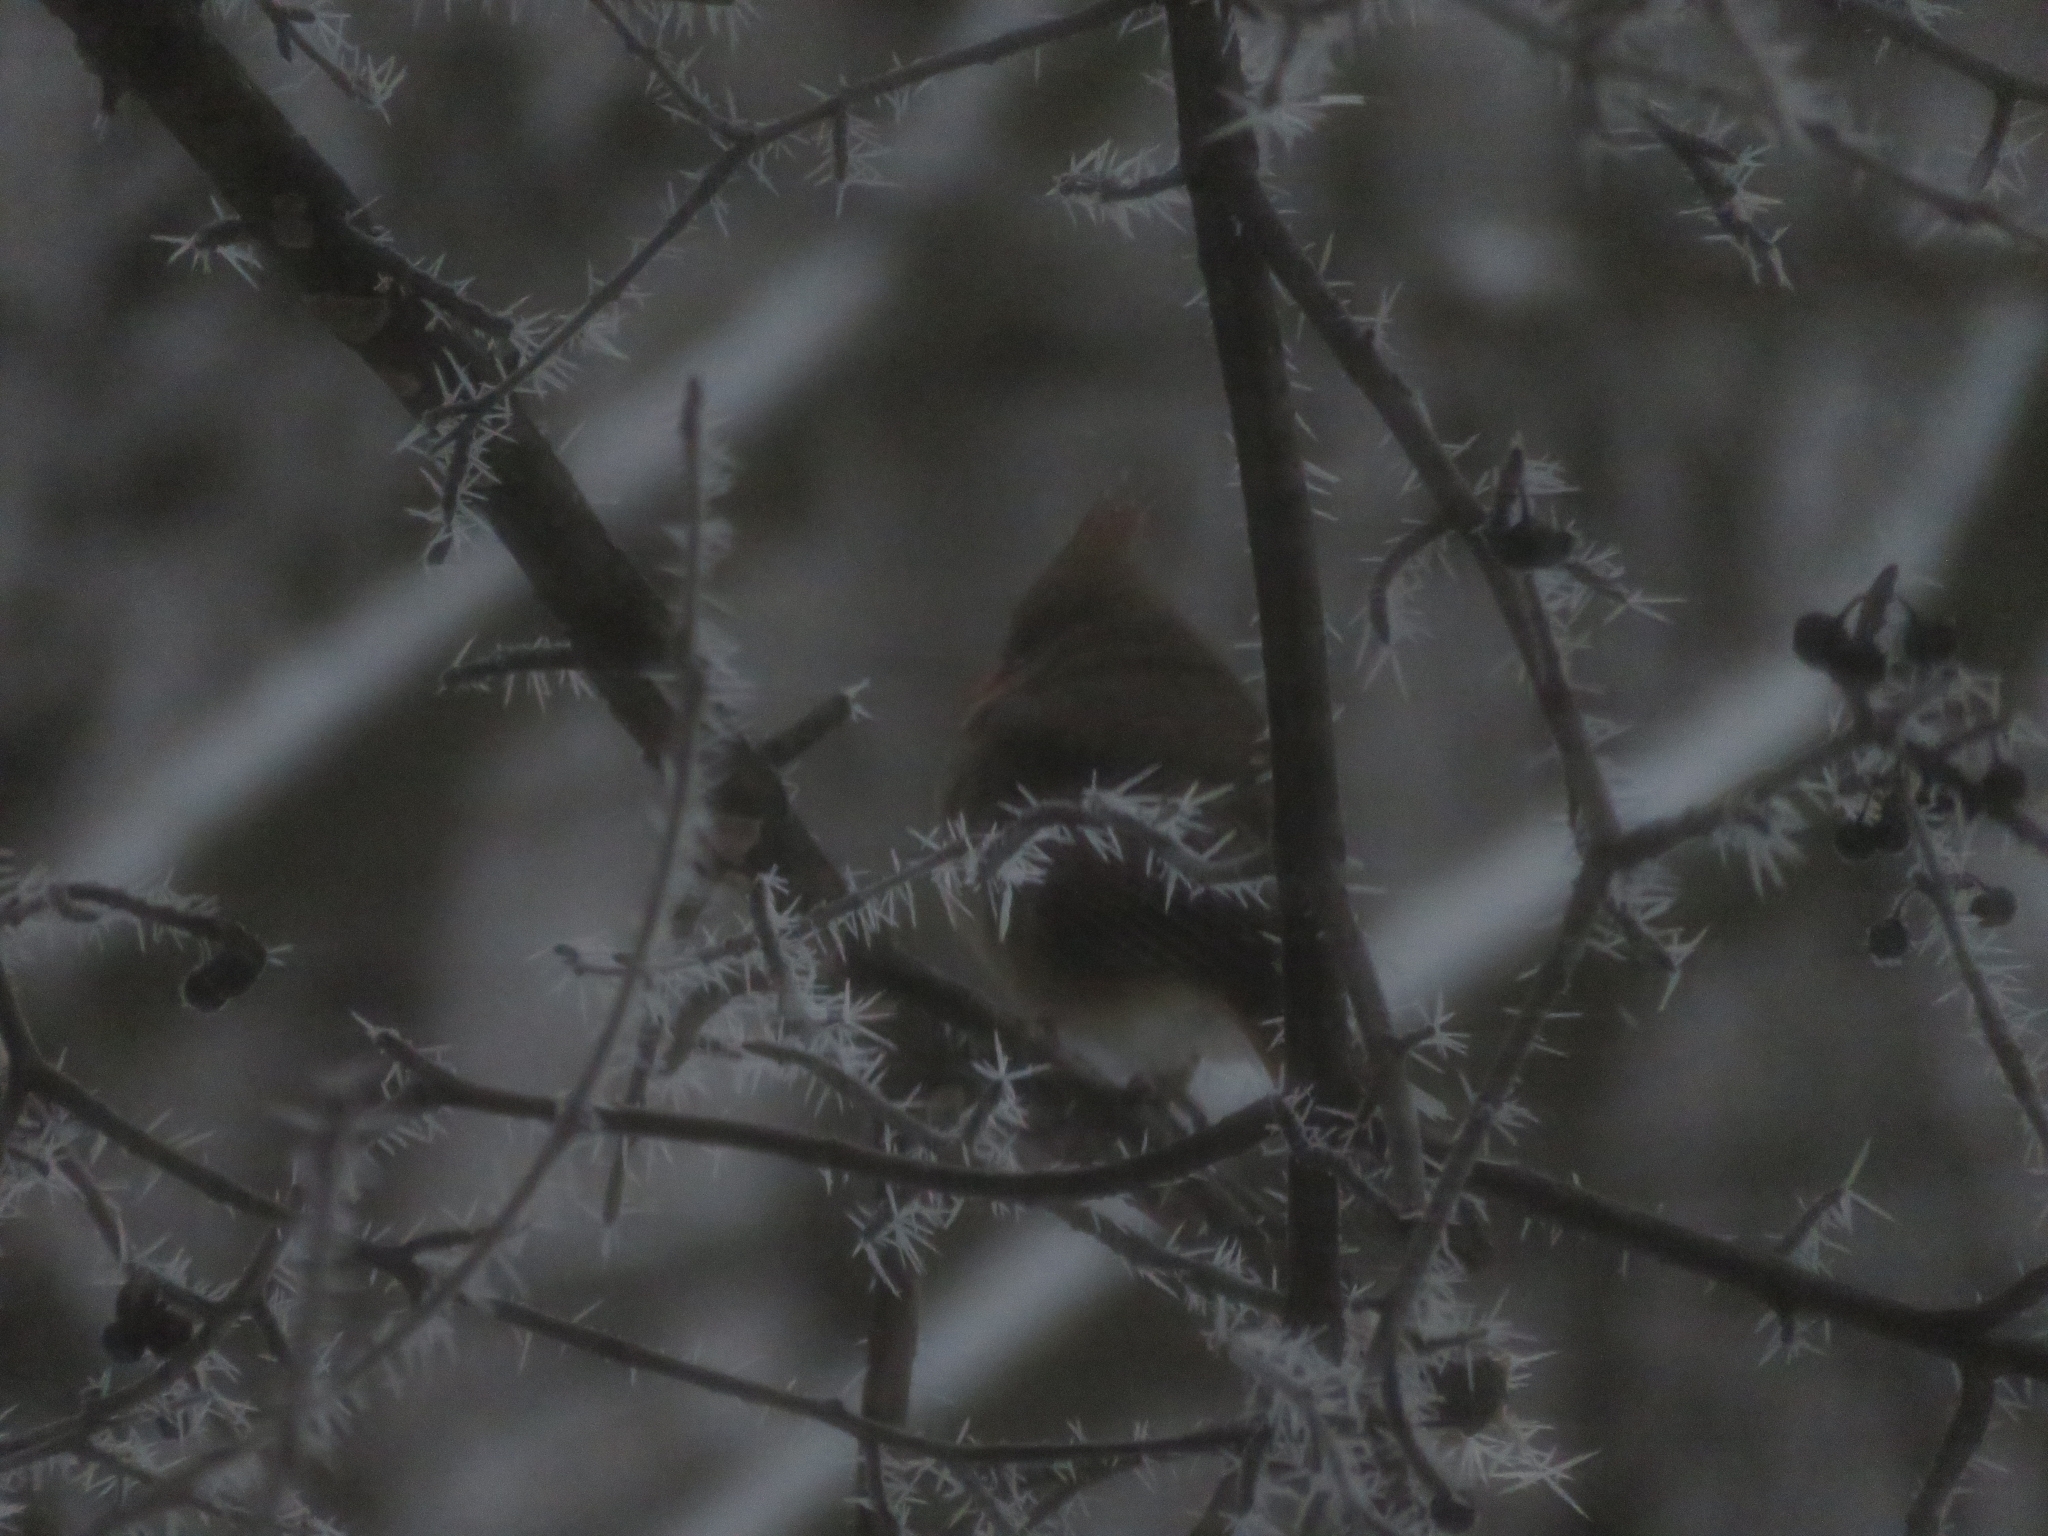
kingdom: Animalia
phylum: Chordata
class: Aves
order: Passeriformes
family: Cardinalidae
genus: Cardinalis
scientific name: Cardinalis cardinalis
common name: Northern cardinal
